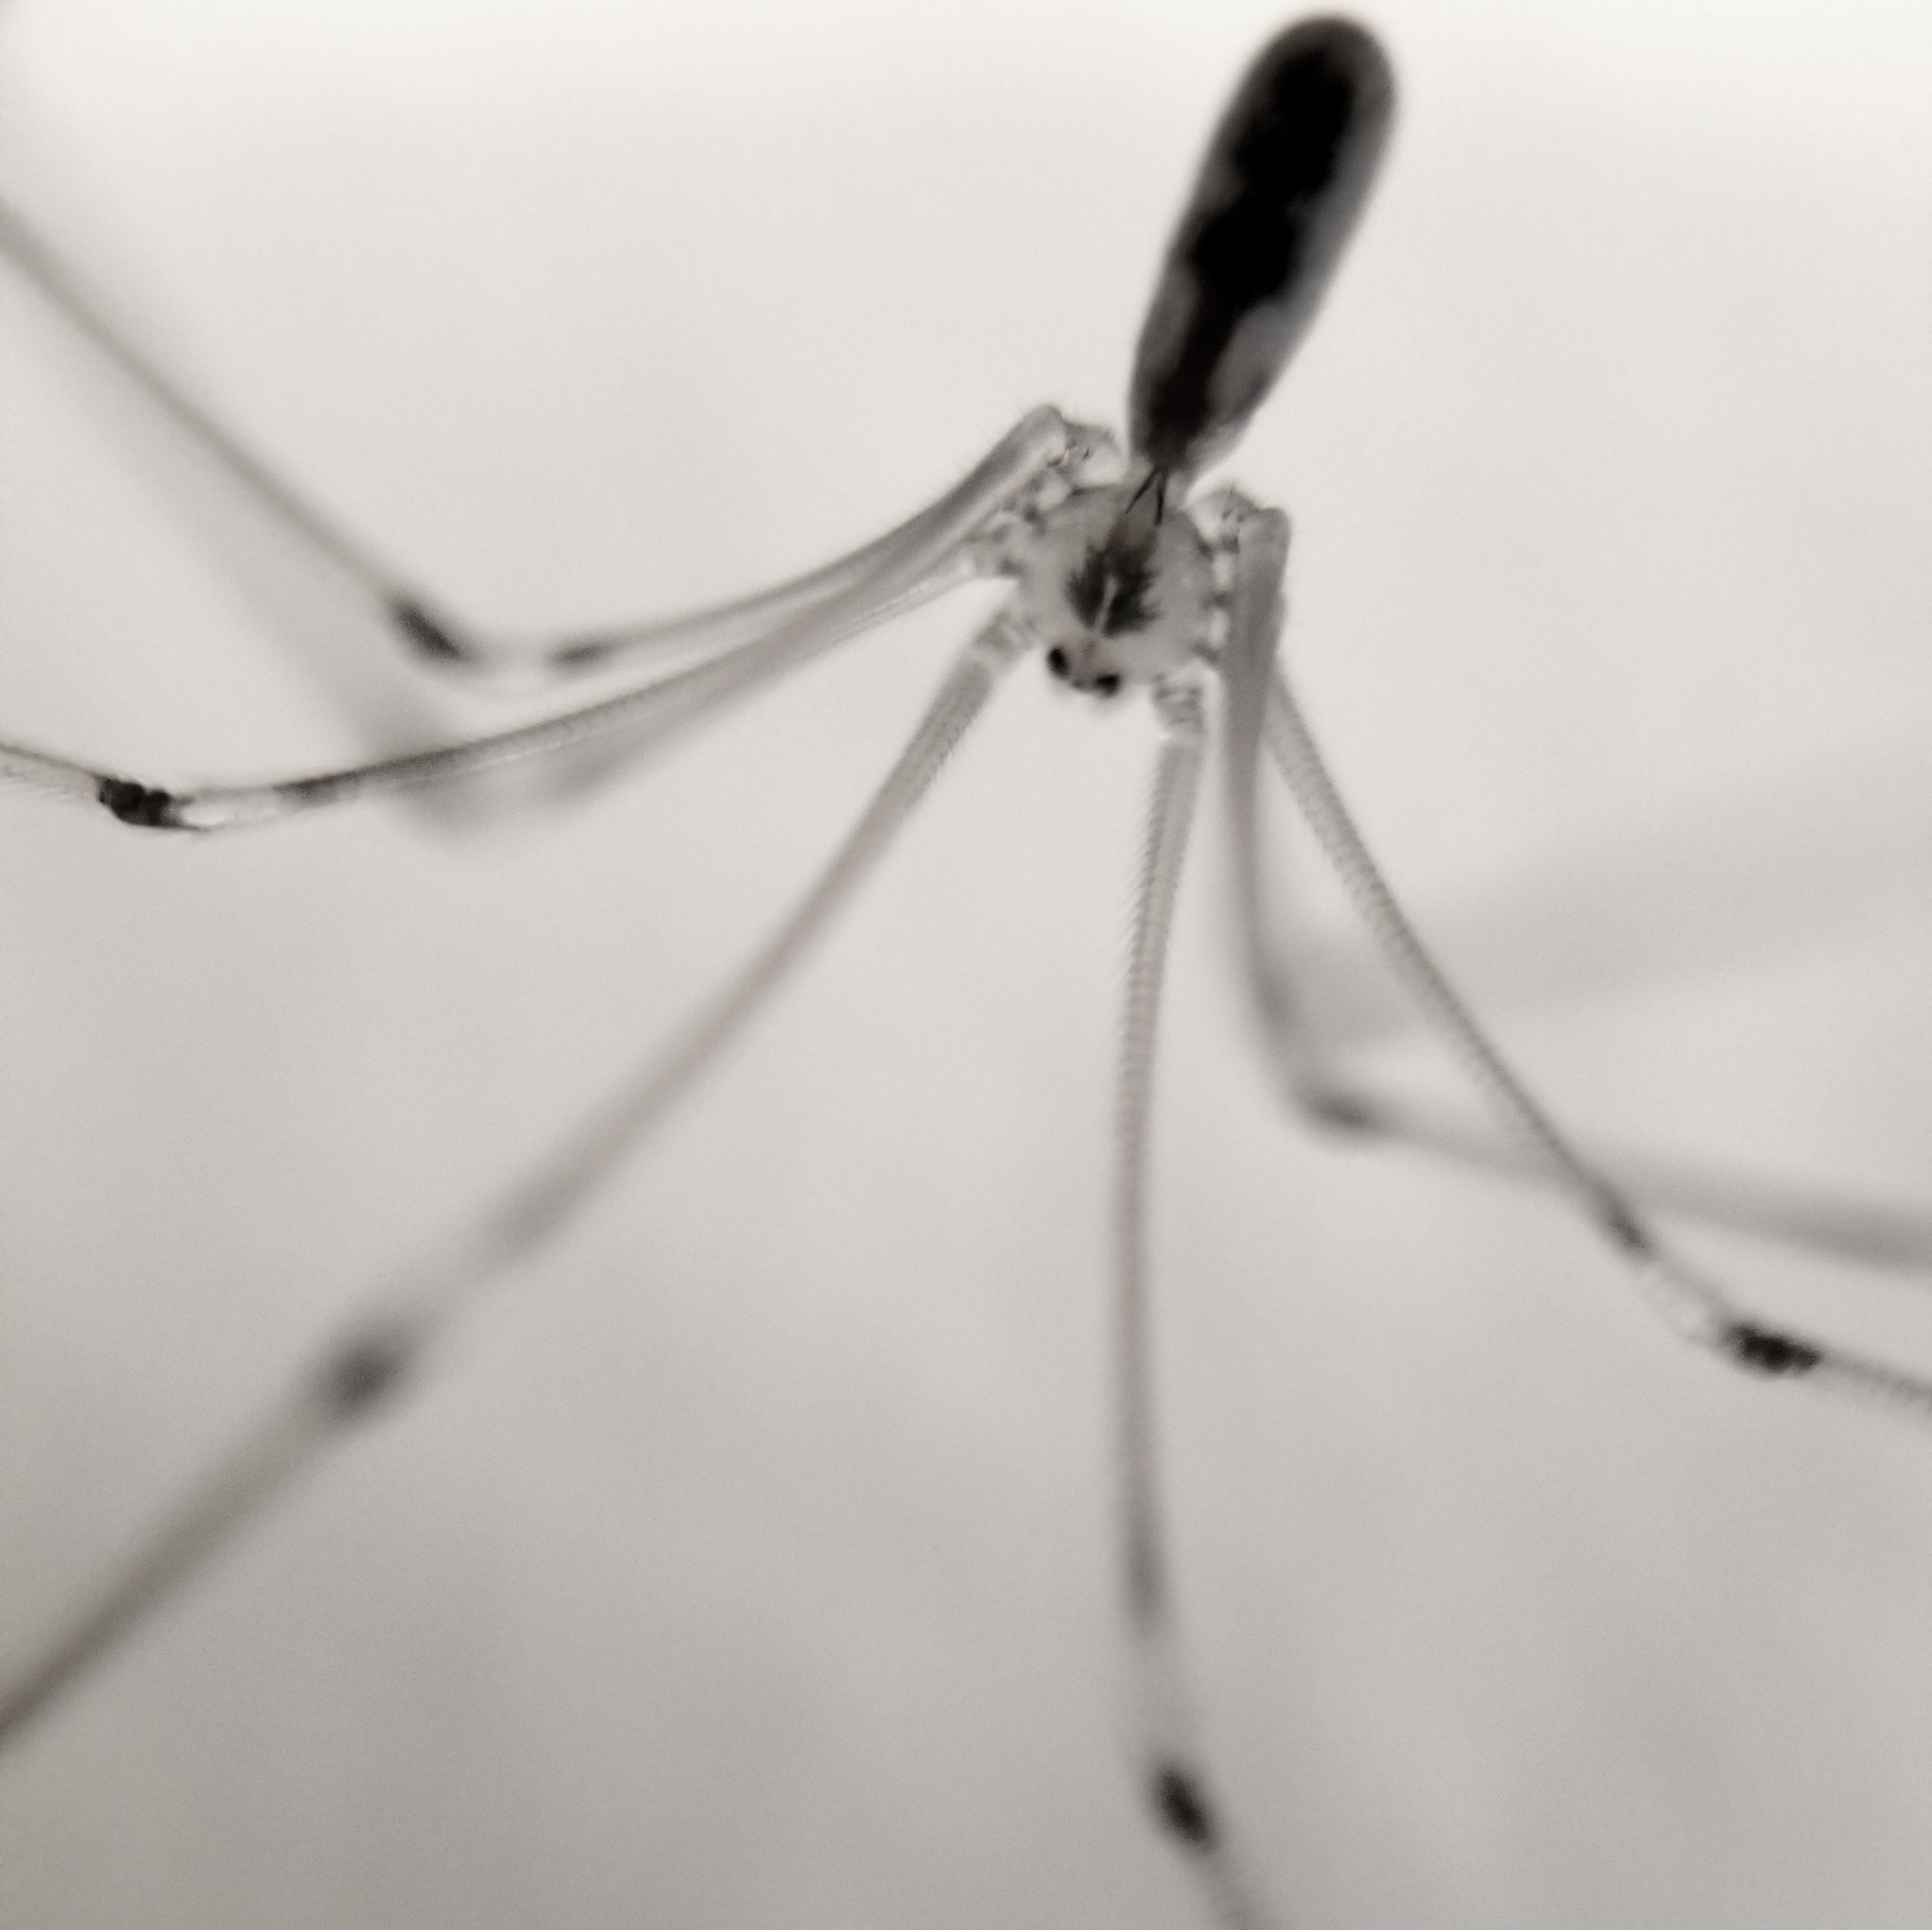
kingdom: Animalia
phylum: Arthropoda
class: Arachnida
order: Araneae
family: Pholcidae
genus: Pholcus
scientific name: Pholcus phalangioides
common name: Longbodied cellar spider
